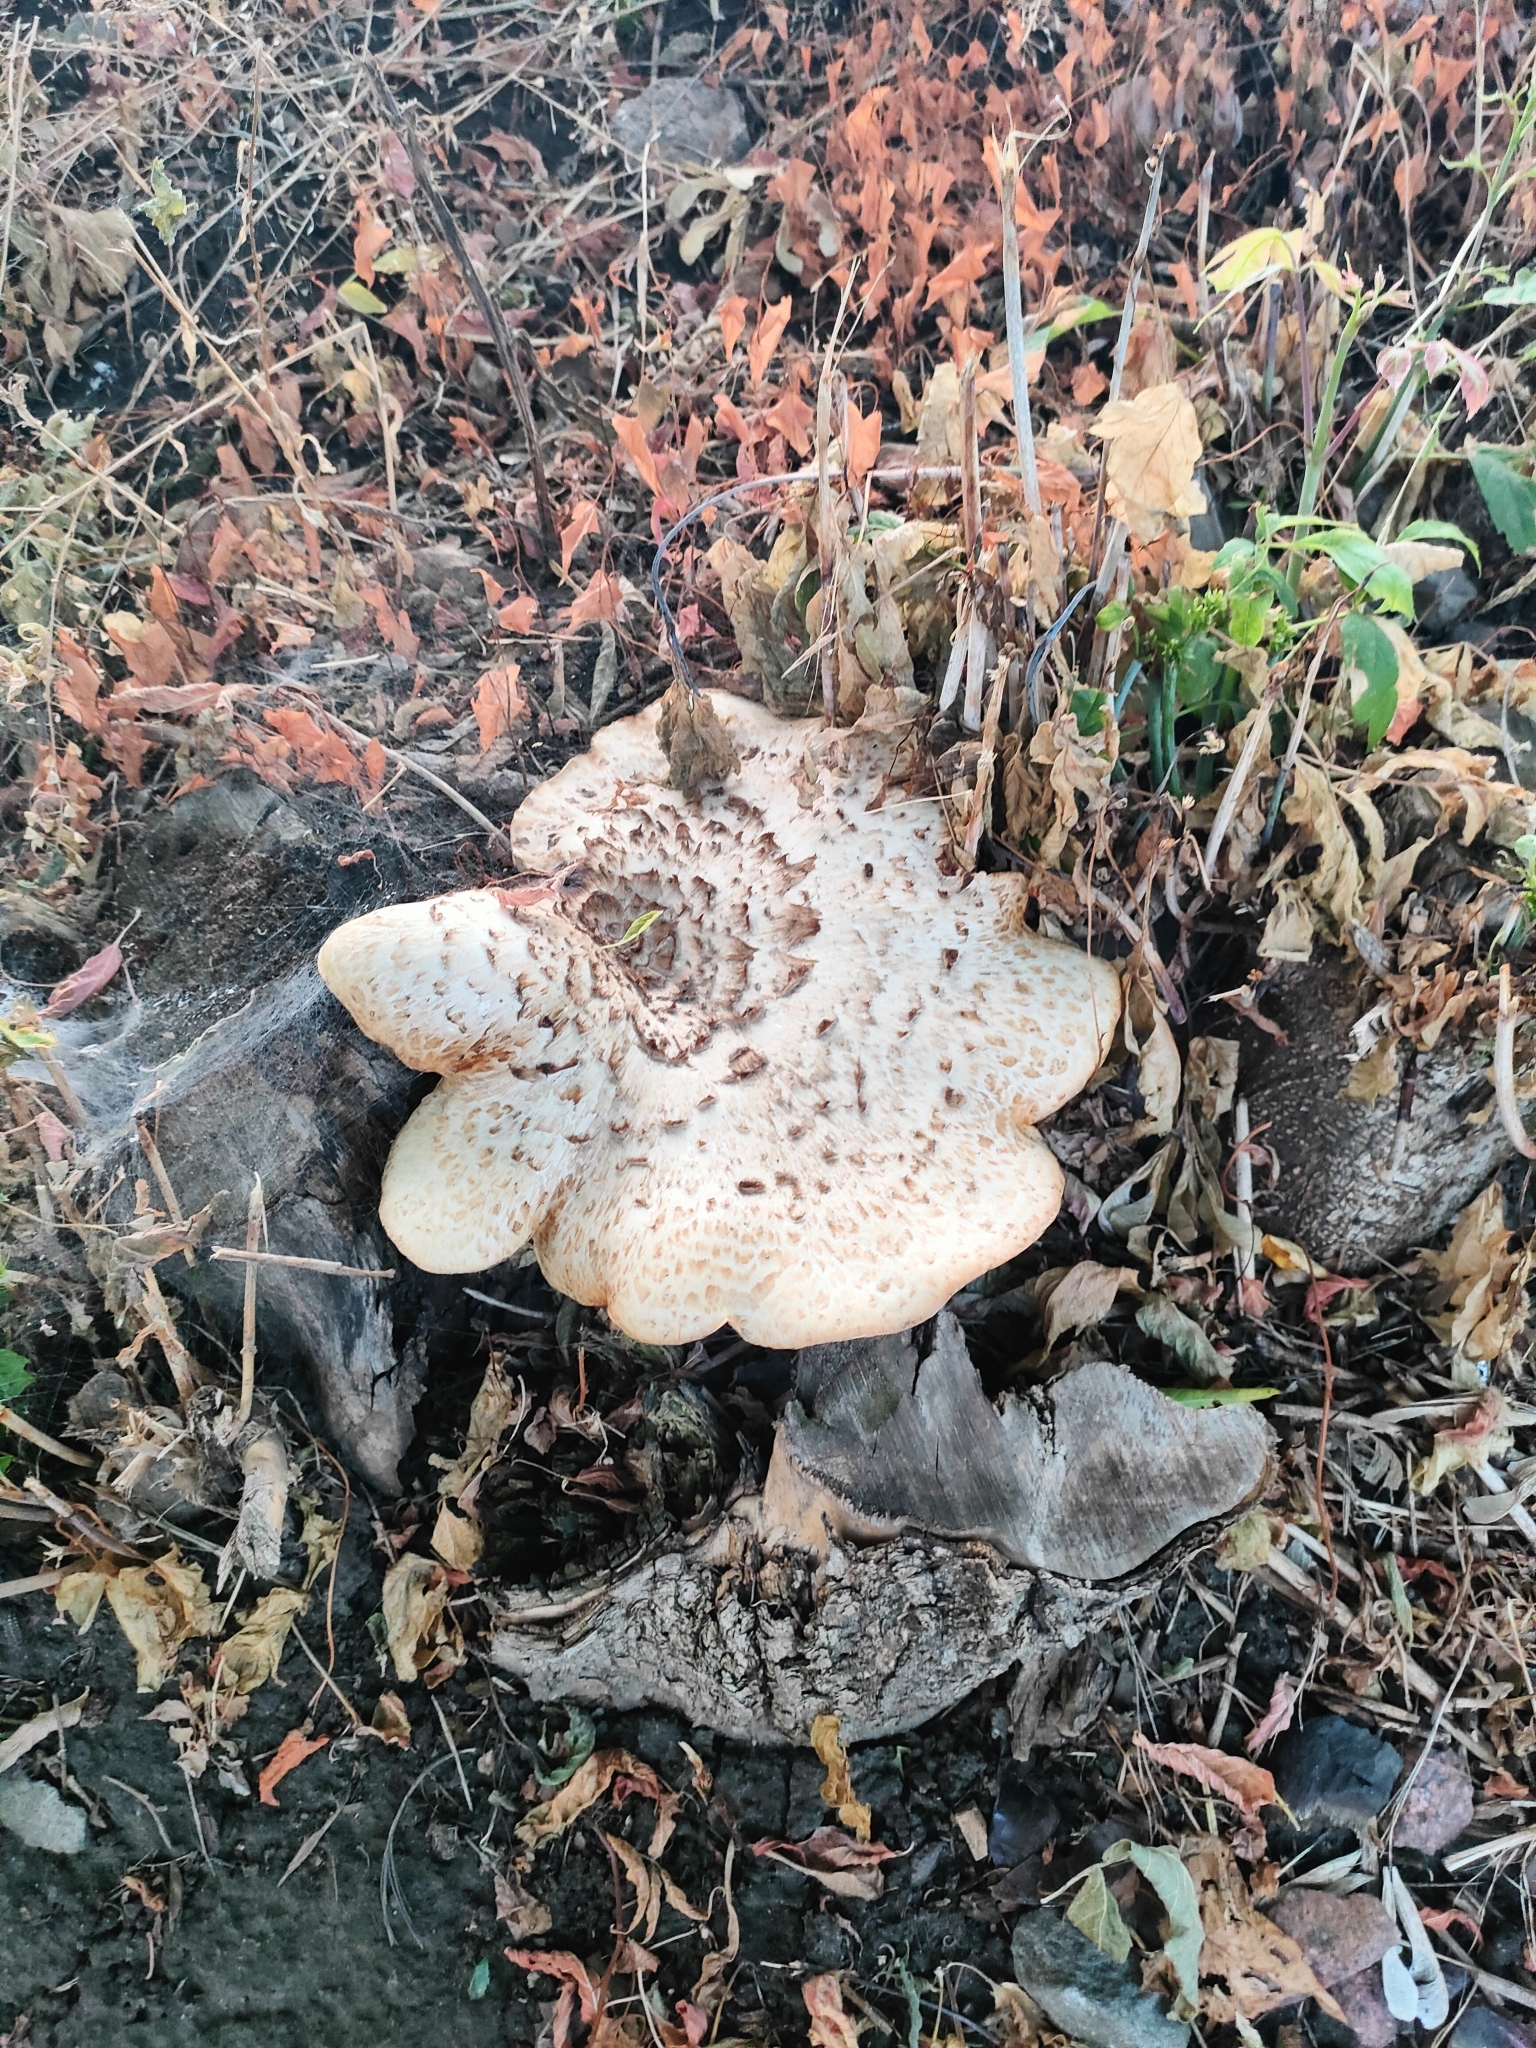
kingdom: Fungi
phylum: Basidiomycota
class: Agaricomycetes
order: Polyporales
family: Polyporaceae
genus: Cerioporus
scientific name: Cerioporus squamosus
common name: Dryad's saddle
